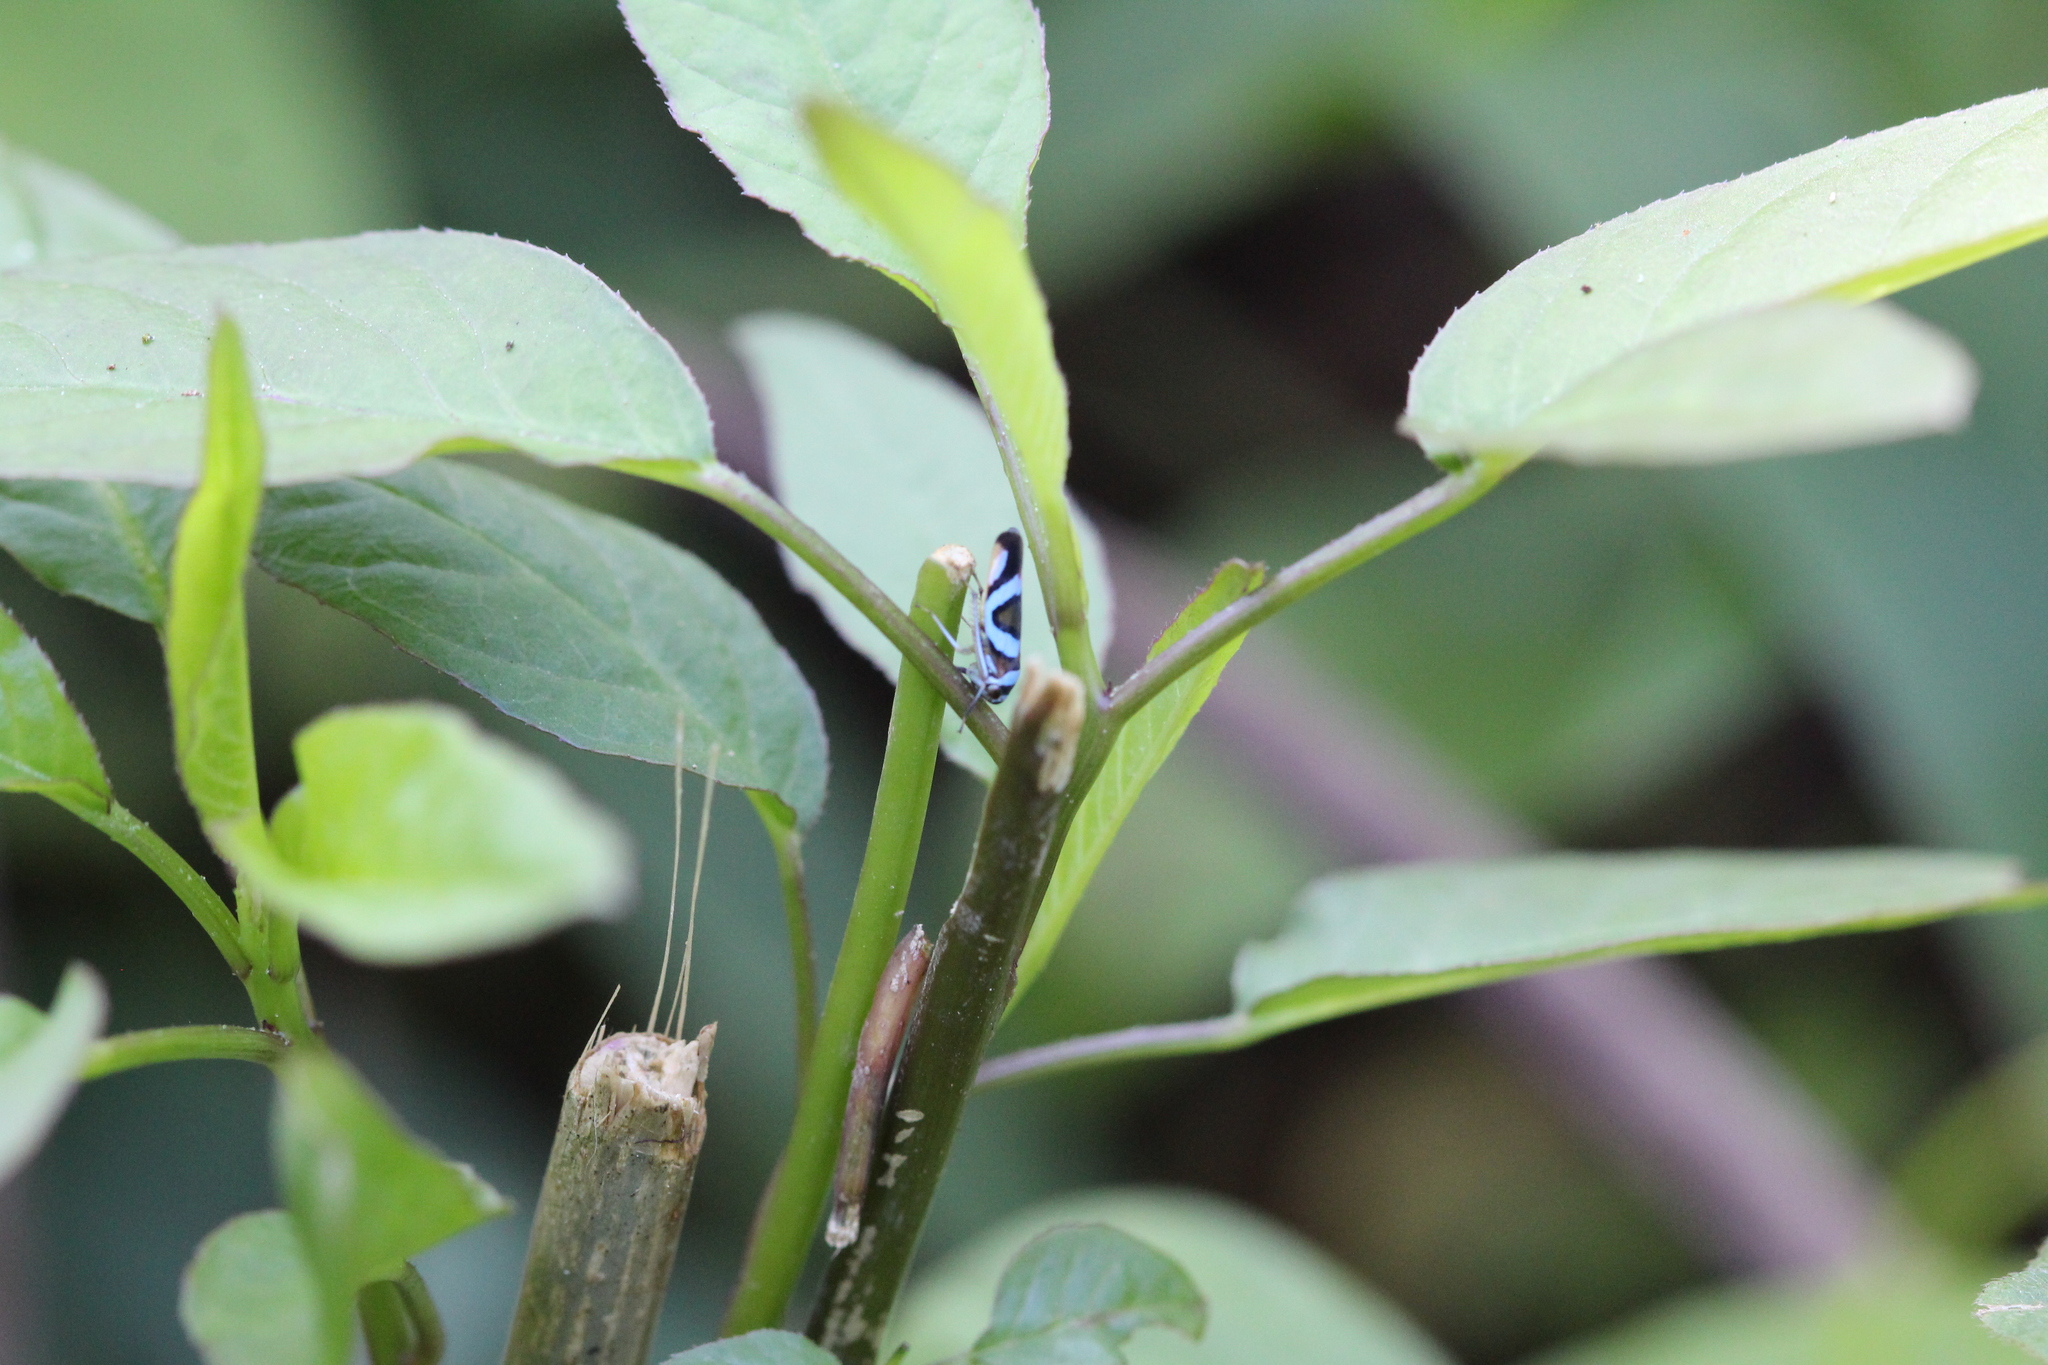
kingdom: Animalia
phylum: Arthropoda
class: Insecta
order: Hemiptera
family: Cicadellidae
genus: Macugonalia
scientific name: Macugonalia moesta
